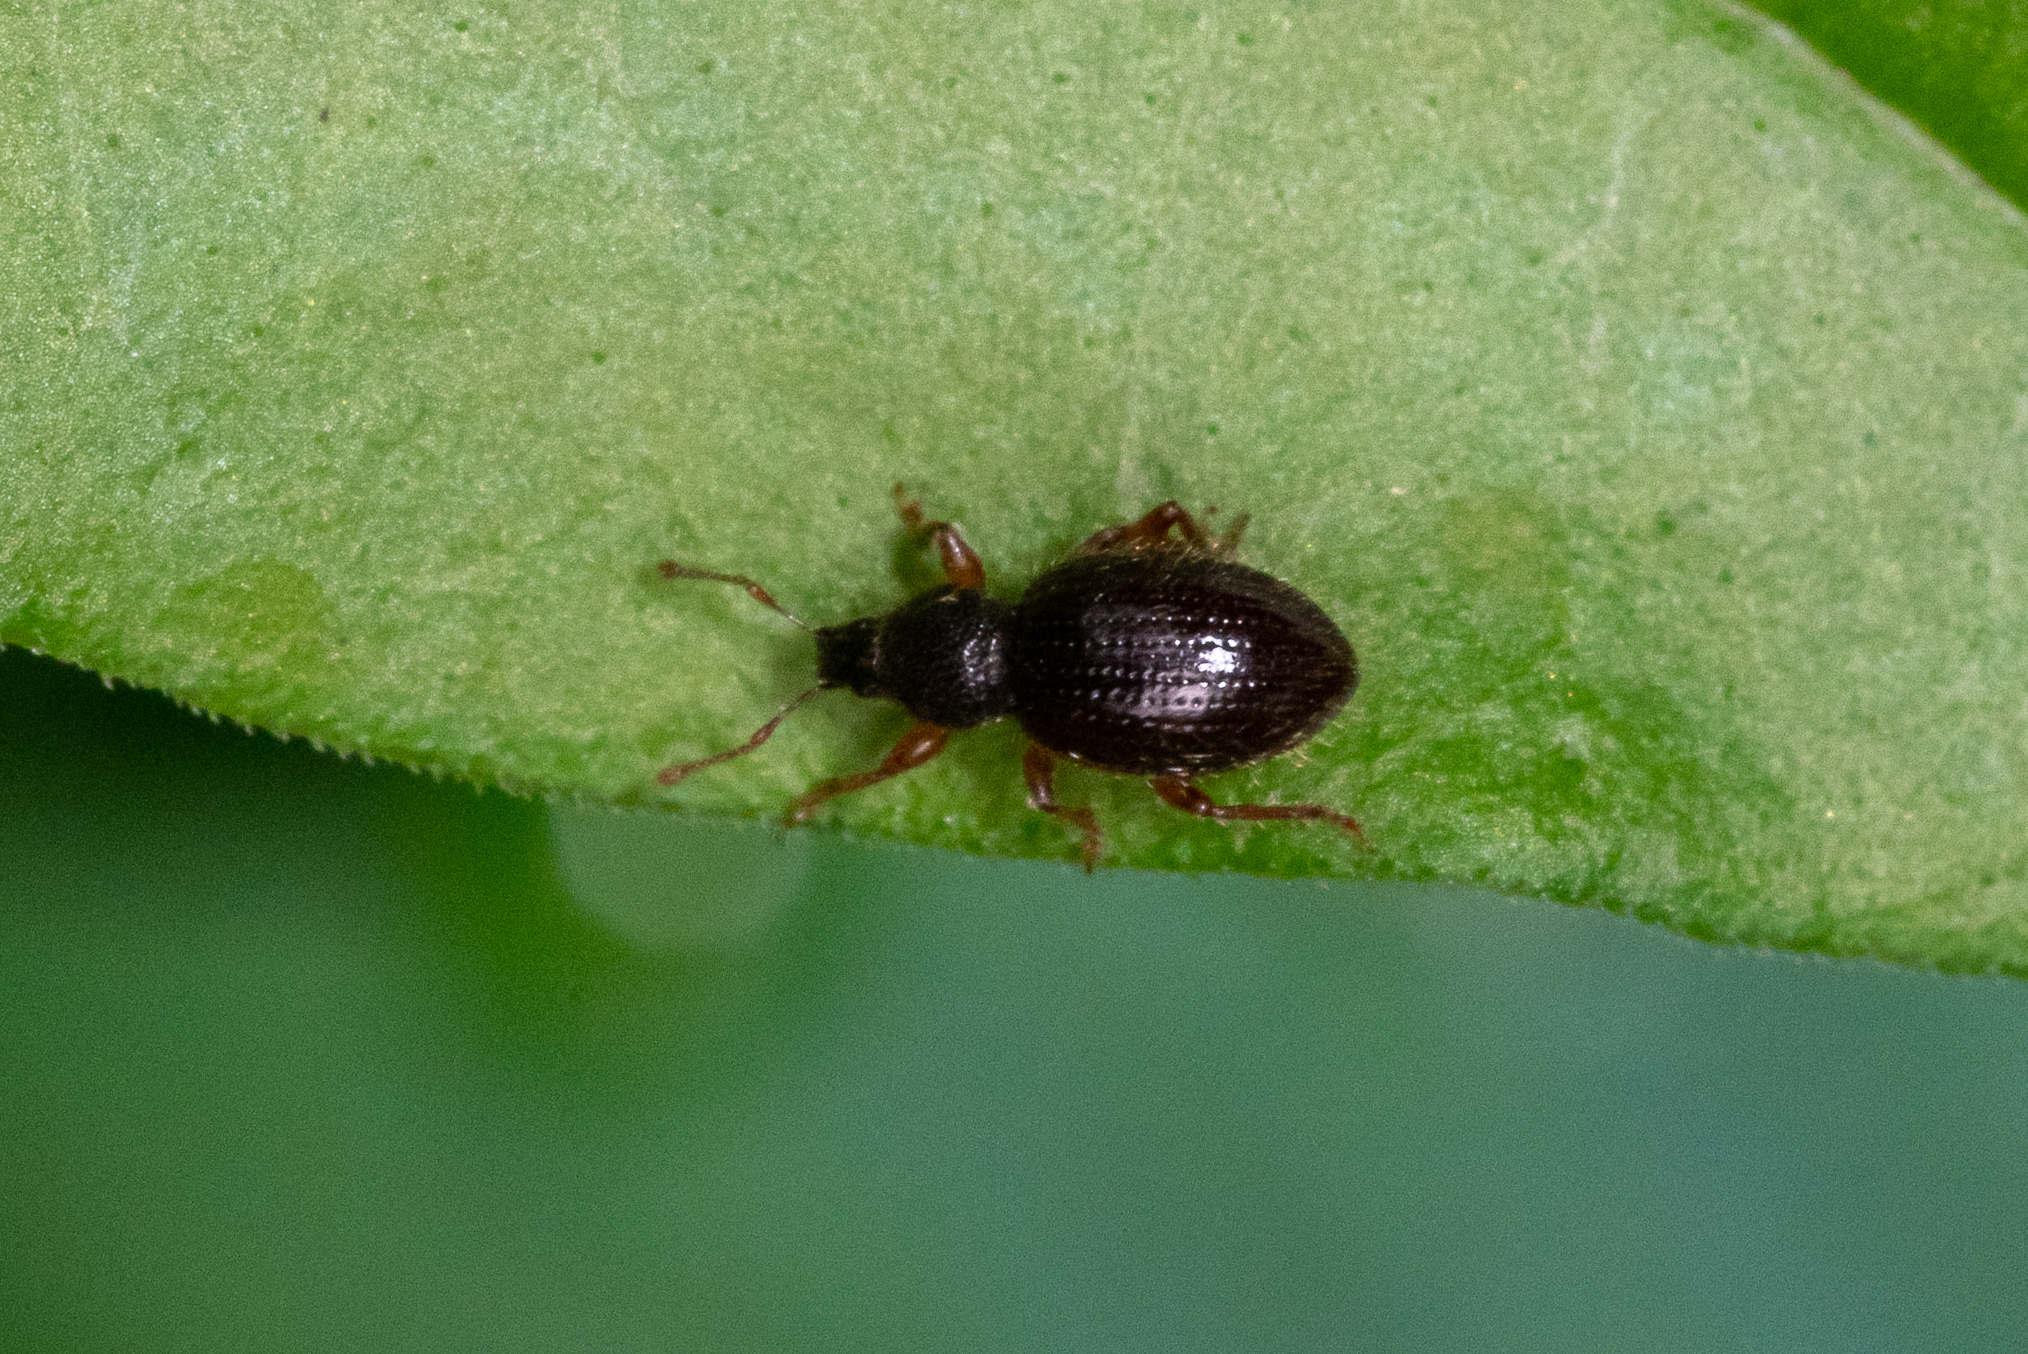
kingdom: Animalia
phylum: Arthropoda
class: Insecta
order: Coleoptera
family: Curculionidae
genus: Exomias
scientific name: Exomias pellucidus
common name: Hairy spider weevil
